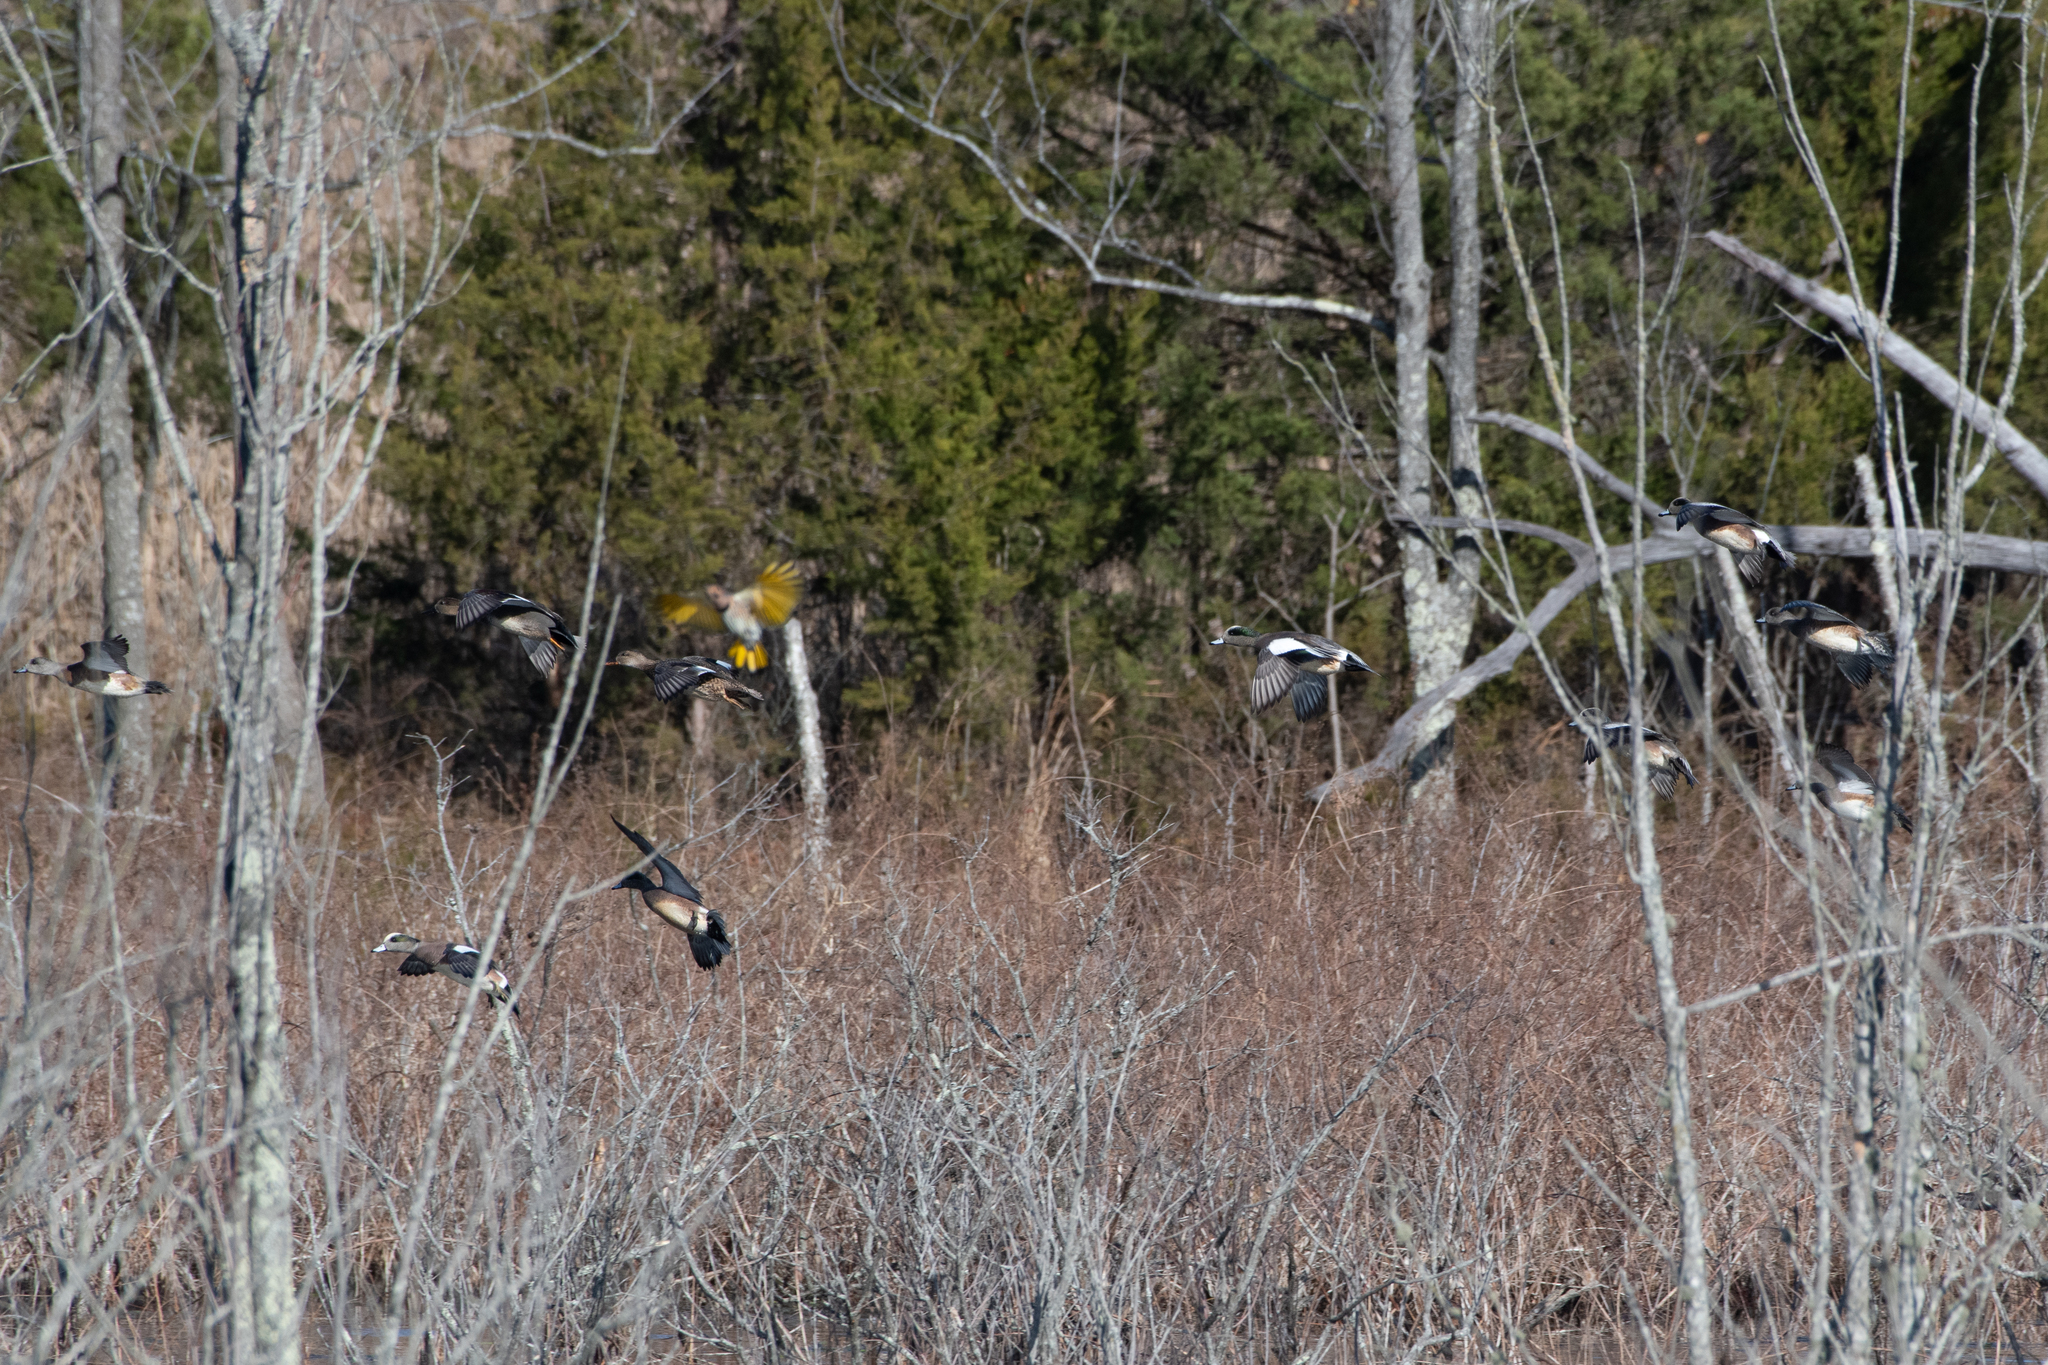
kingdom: Animalia
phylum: Chordata
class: Aves
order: Anseriformes
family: Anatidae
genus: Mareca
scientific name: Mareca americana
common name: American wigeon
